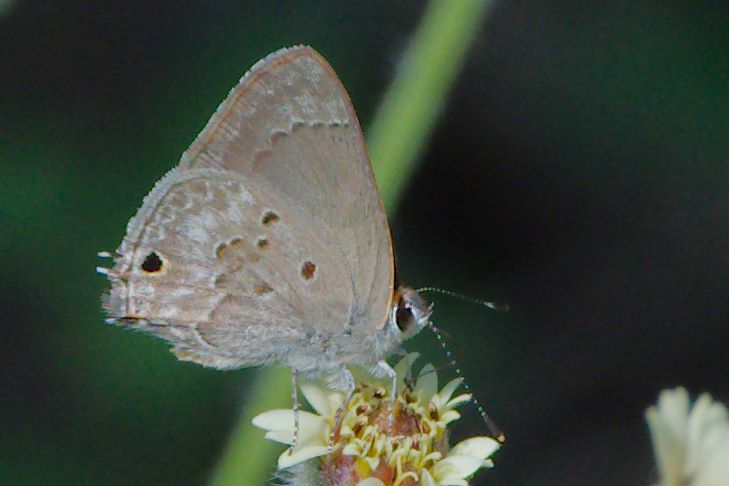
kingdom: Animalia
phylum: Arthropoda
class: Insecta
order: Lepidoptera
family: Lycaenidae
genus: Callicista
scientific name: Callicista columella
